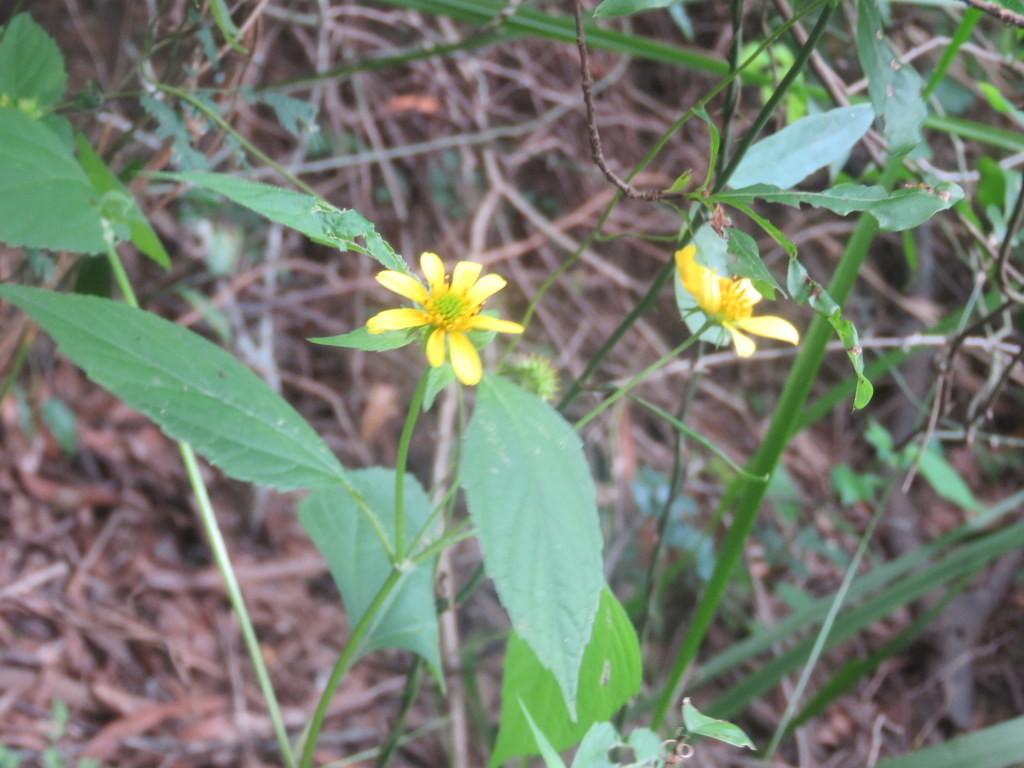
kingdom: Plantae
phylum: Tracheophyta
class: Magnoliopsida
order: Asterales
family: Asteraceae
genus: Echinocephalum
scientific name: Echinocephalum latifolium
